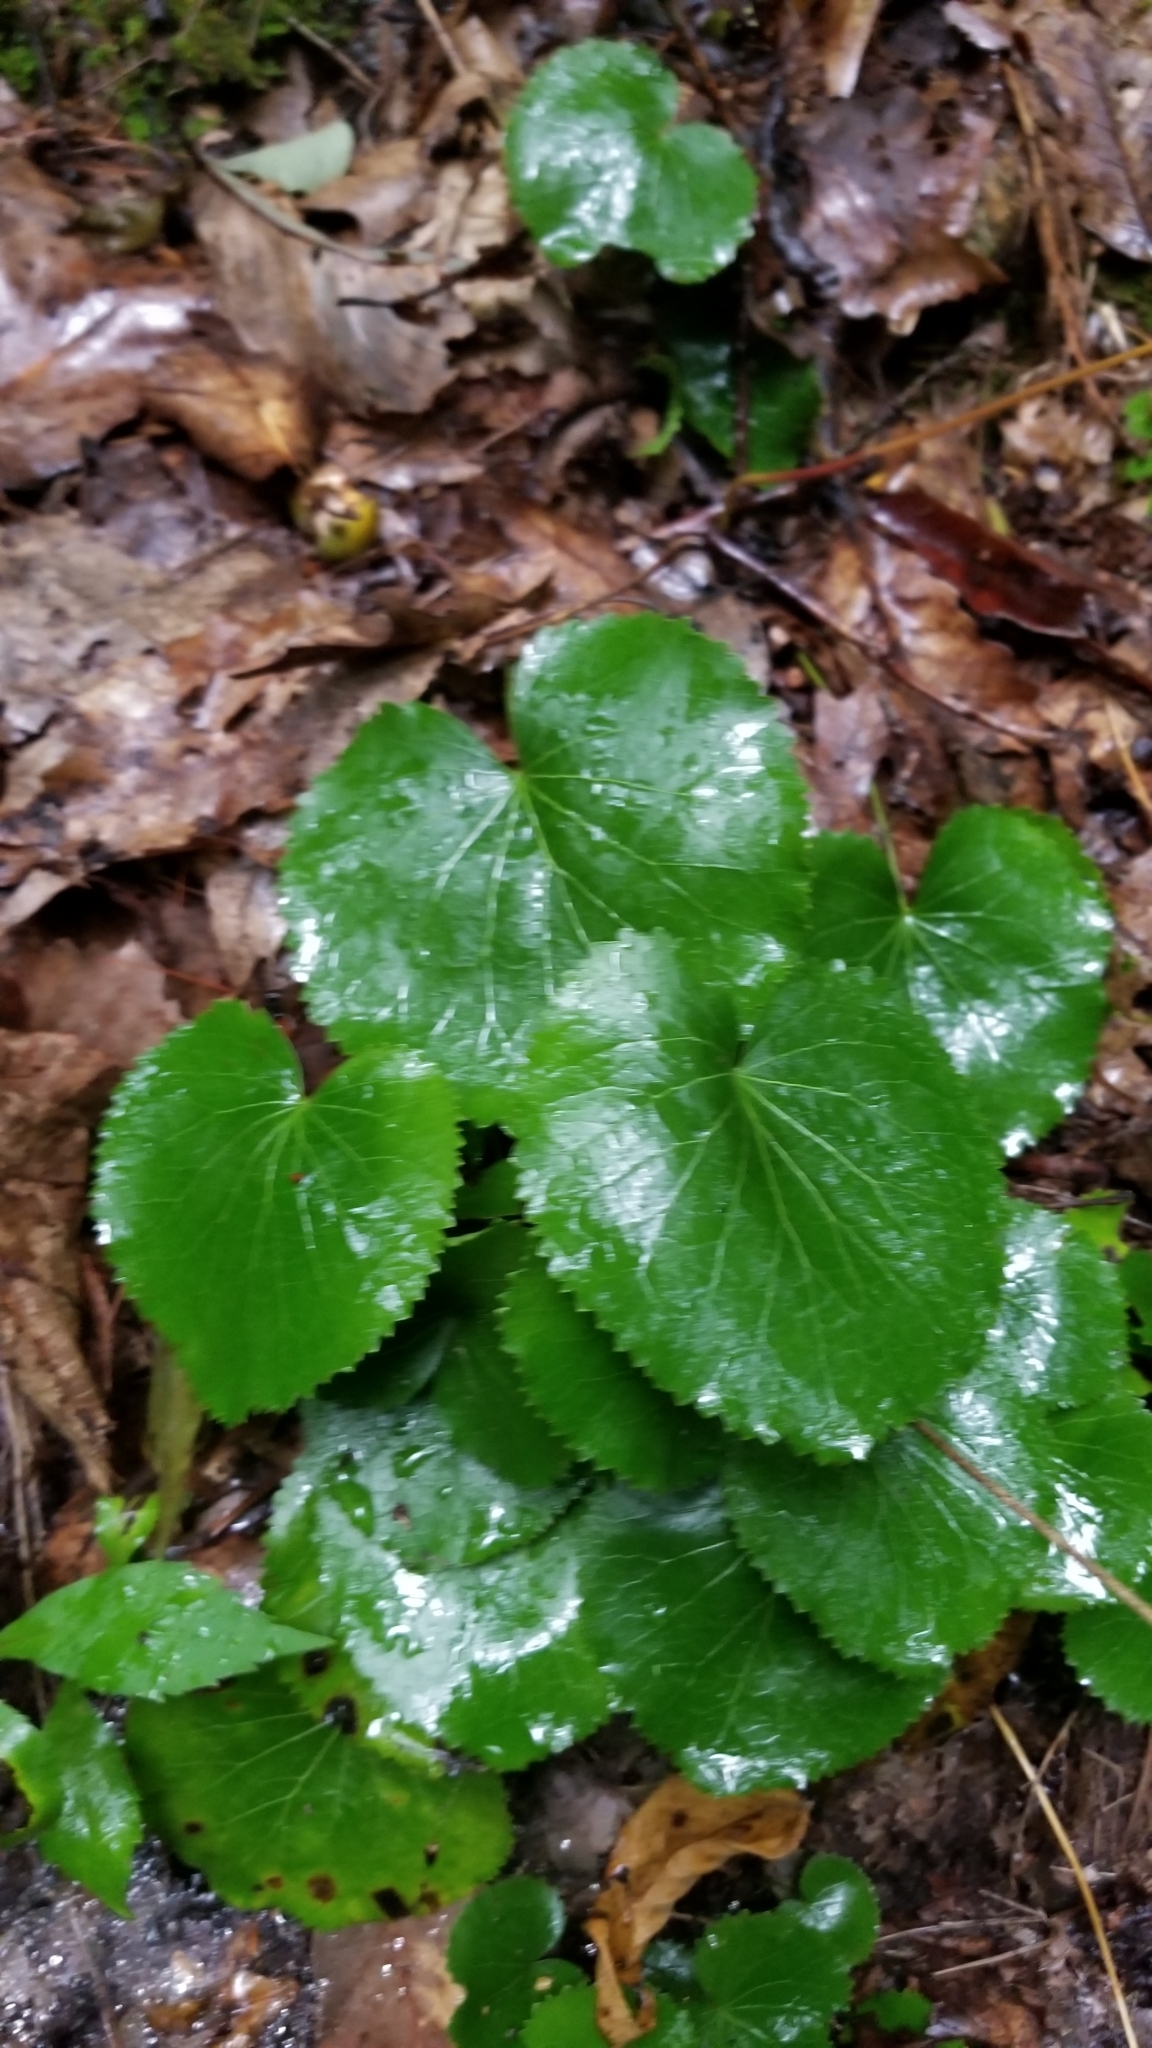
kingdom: Plantae
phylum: Tracheophyta
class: Magnoliopsida
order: Ericales
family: Diapensiaceae
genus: Galax
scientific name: Galax urceolata
